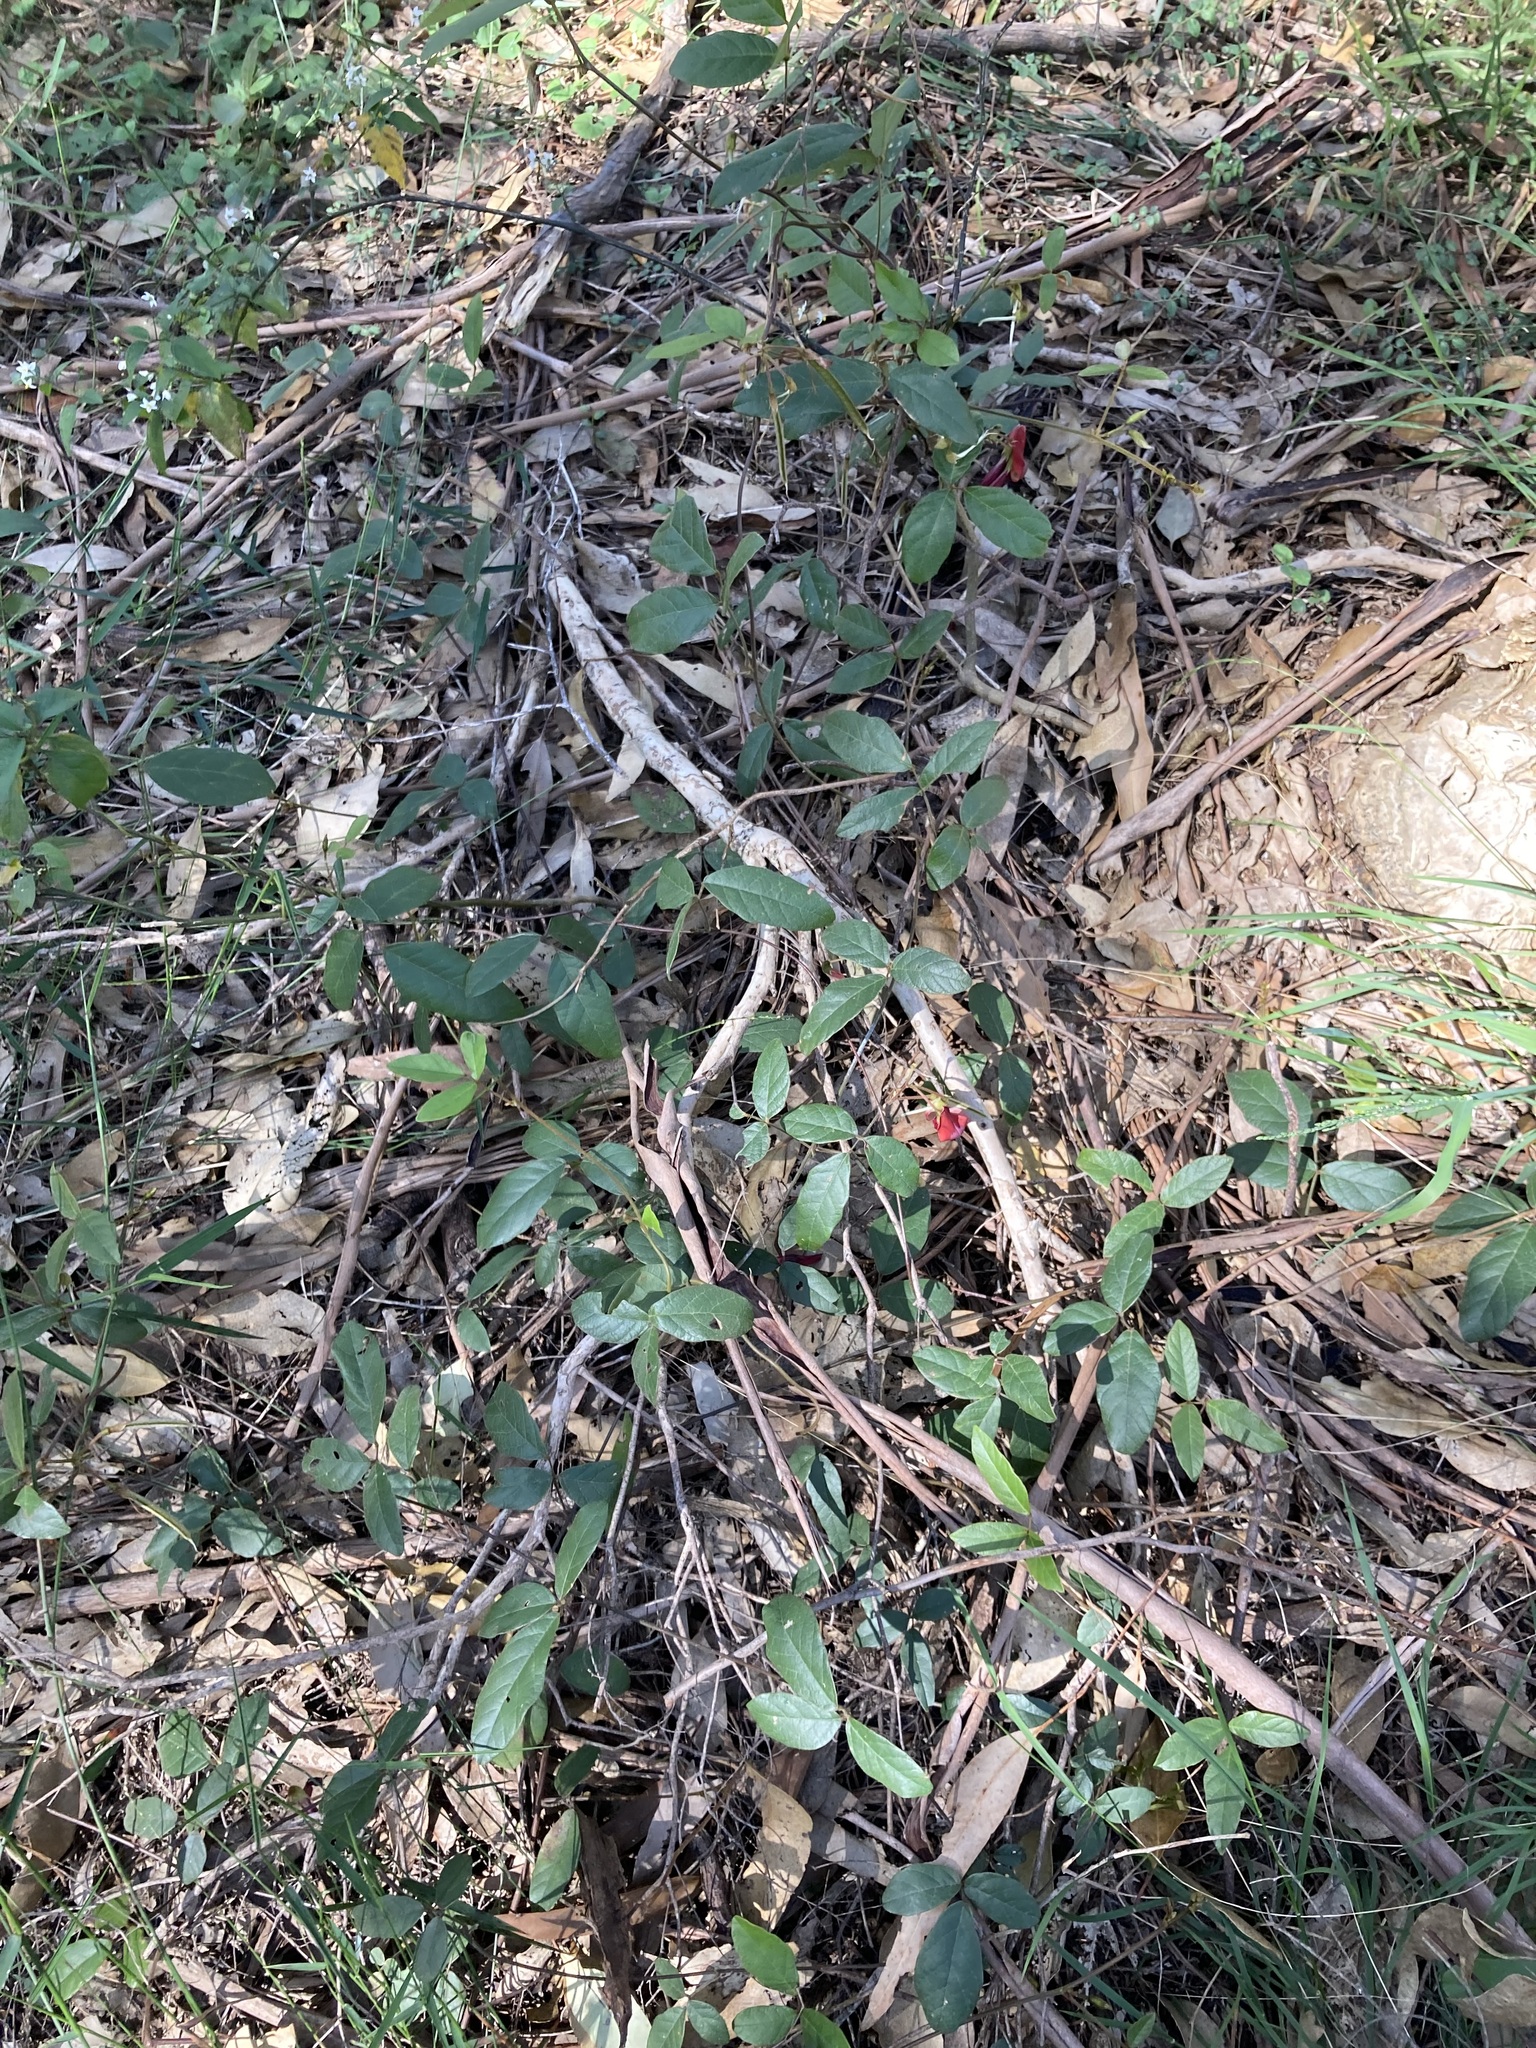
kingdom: Plantae
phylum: Tracheophyta
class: Magnoliopsida
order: Fabales
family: Fabaceae
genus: Kennedia
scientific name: Kennedia rubicunda
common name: Red kennedy-pea
